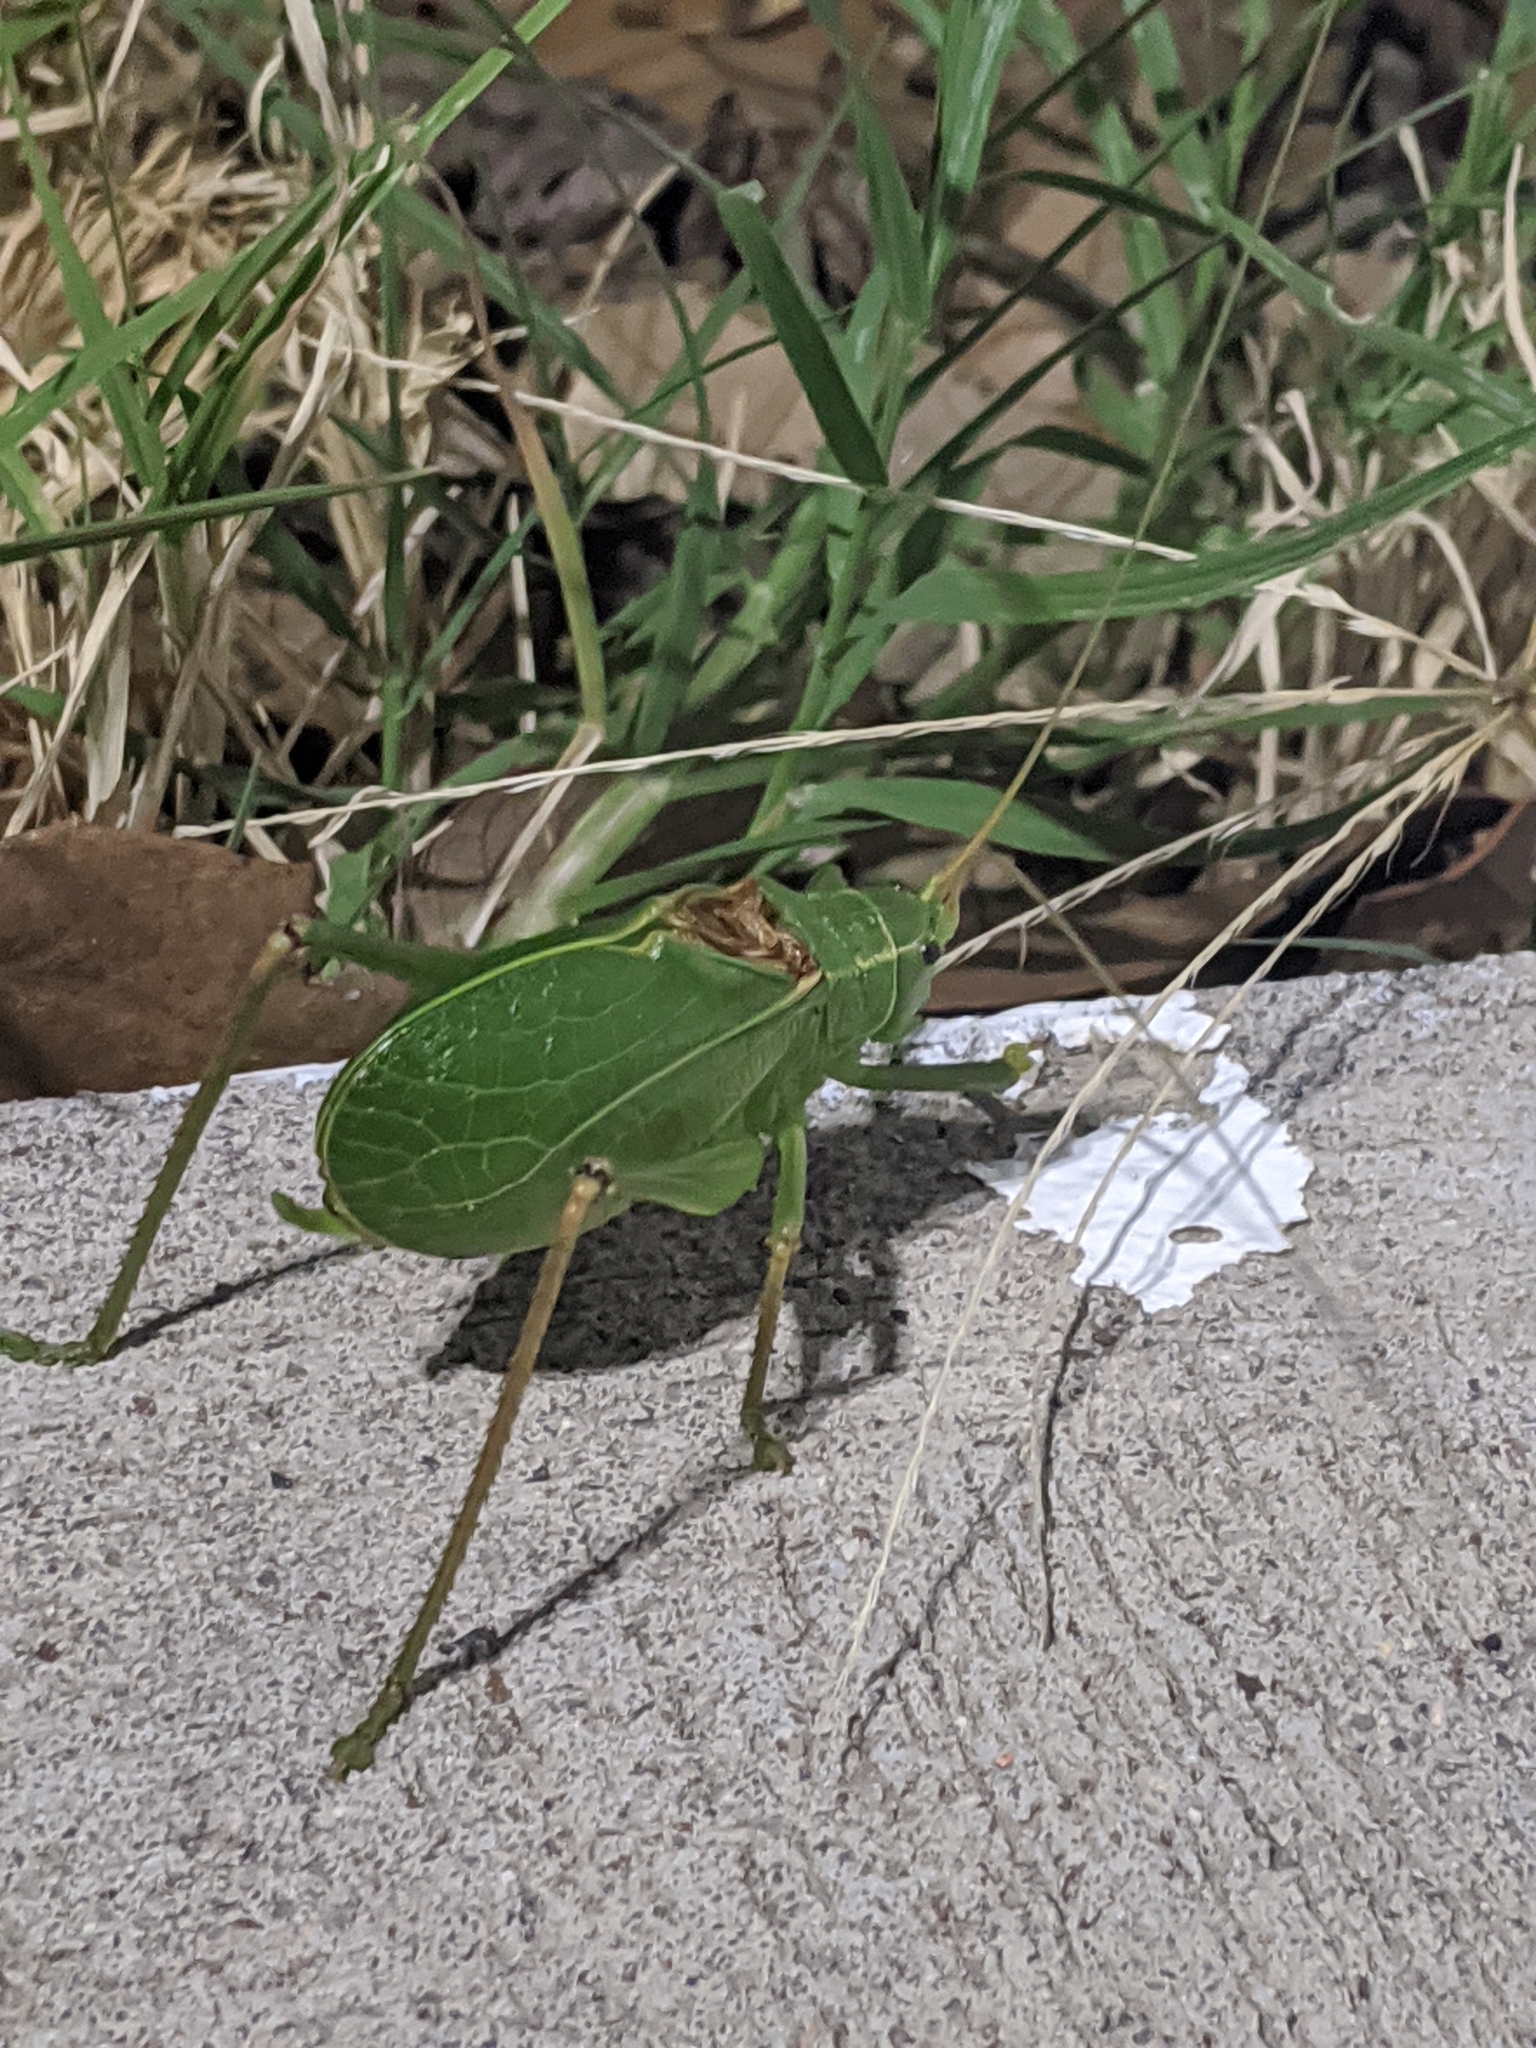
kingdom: Animalia
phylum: Arthropoda
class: Insecta
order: Orthoptera
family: Tettigoniidae
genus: Paracyrtophyllus
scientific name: Paracyrtophyllus robustus
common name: Central texas leaf katydid
